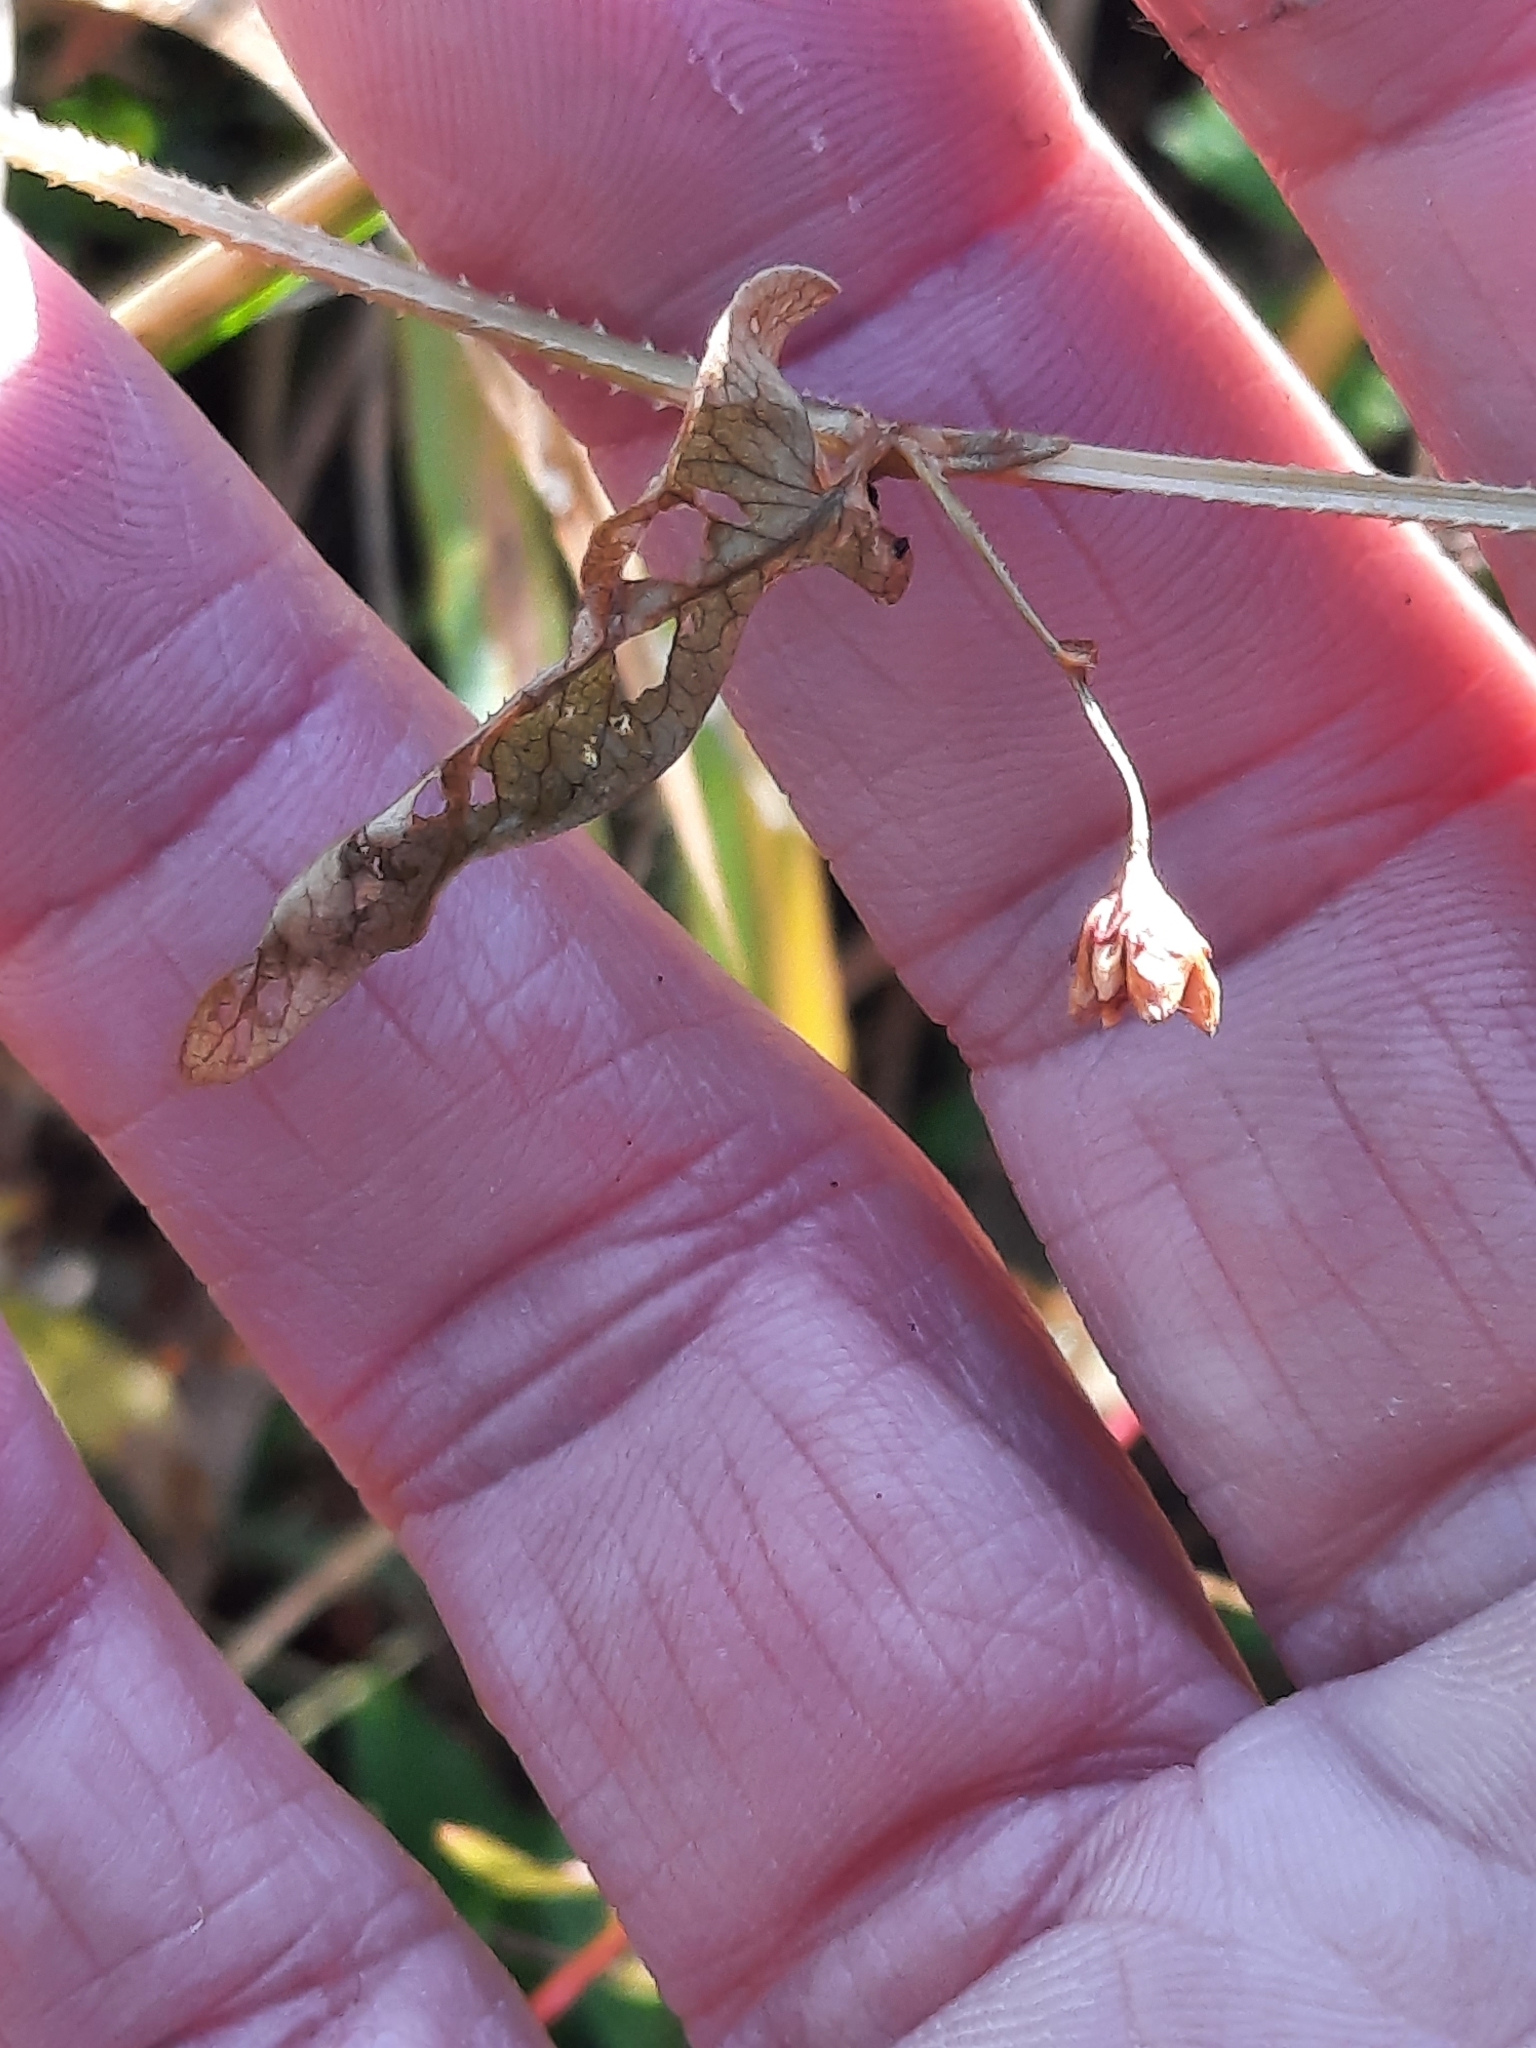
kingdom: Plantae
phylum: Tracheophyta
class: Magnoliopsida
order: Caryophyllales
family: Polygonaceae
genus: Persicaria
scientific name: Persicaria sagittata
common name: American tearthumb
